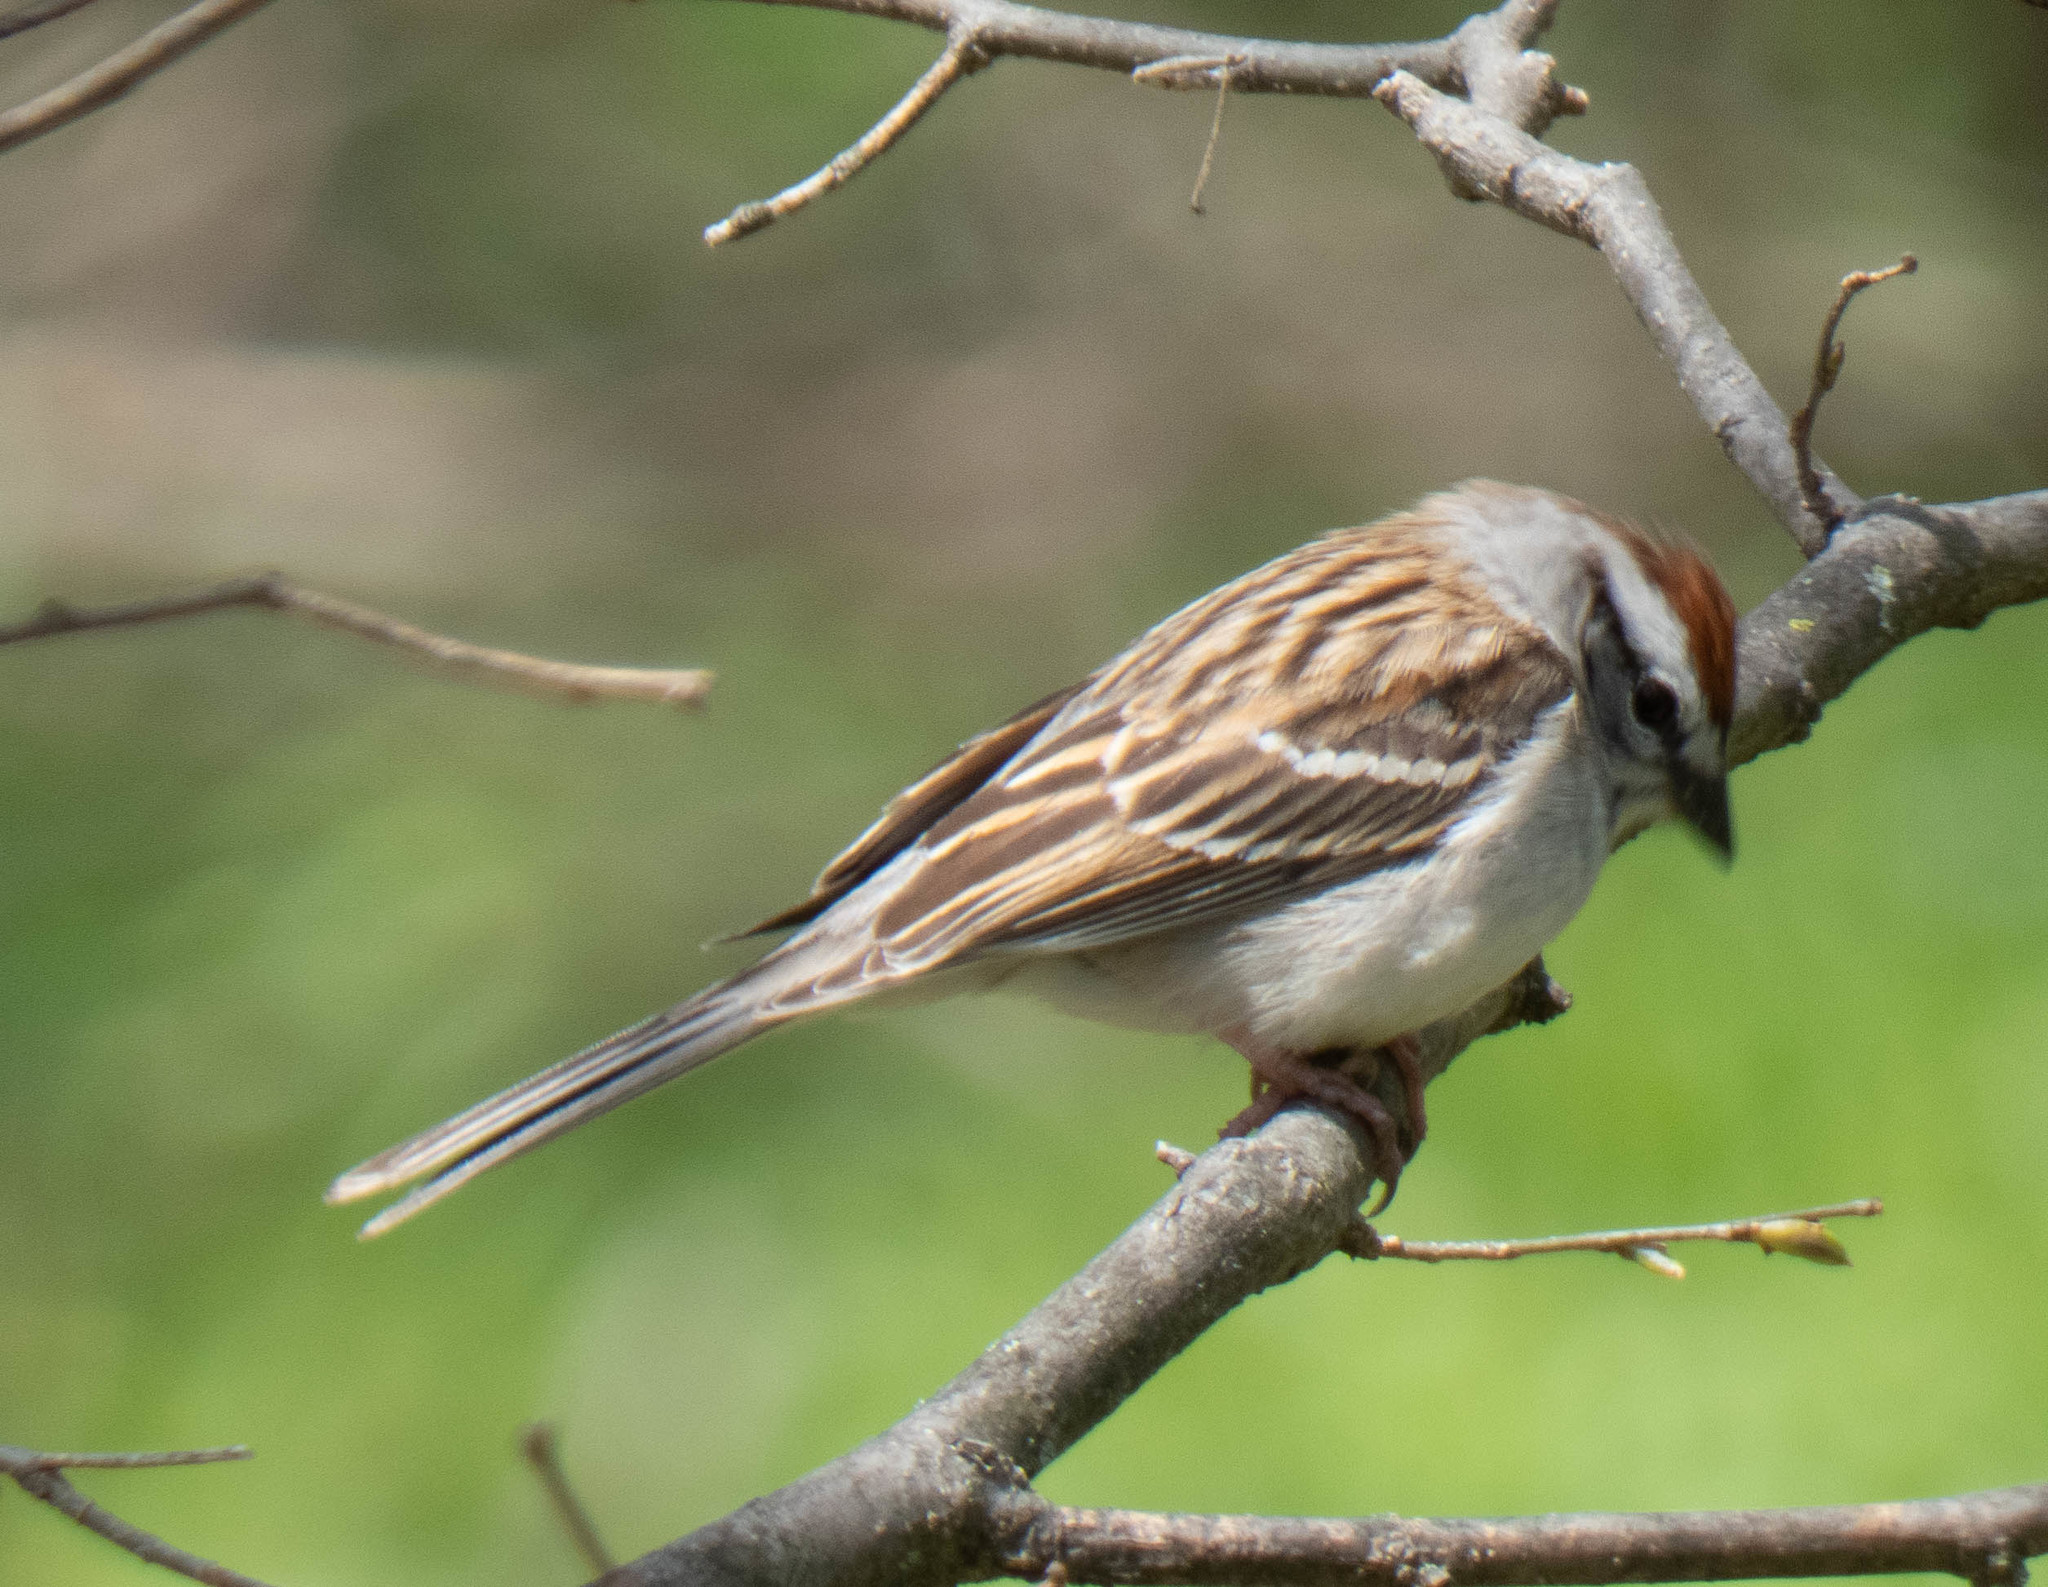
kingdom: Animalia
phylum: Chordata
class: Aves
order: Passeriformes
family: Passerellidae
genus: Spizella
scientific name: Spizella passerina
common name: Chipping sparrow
